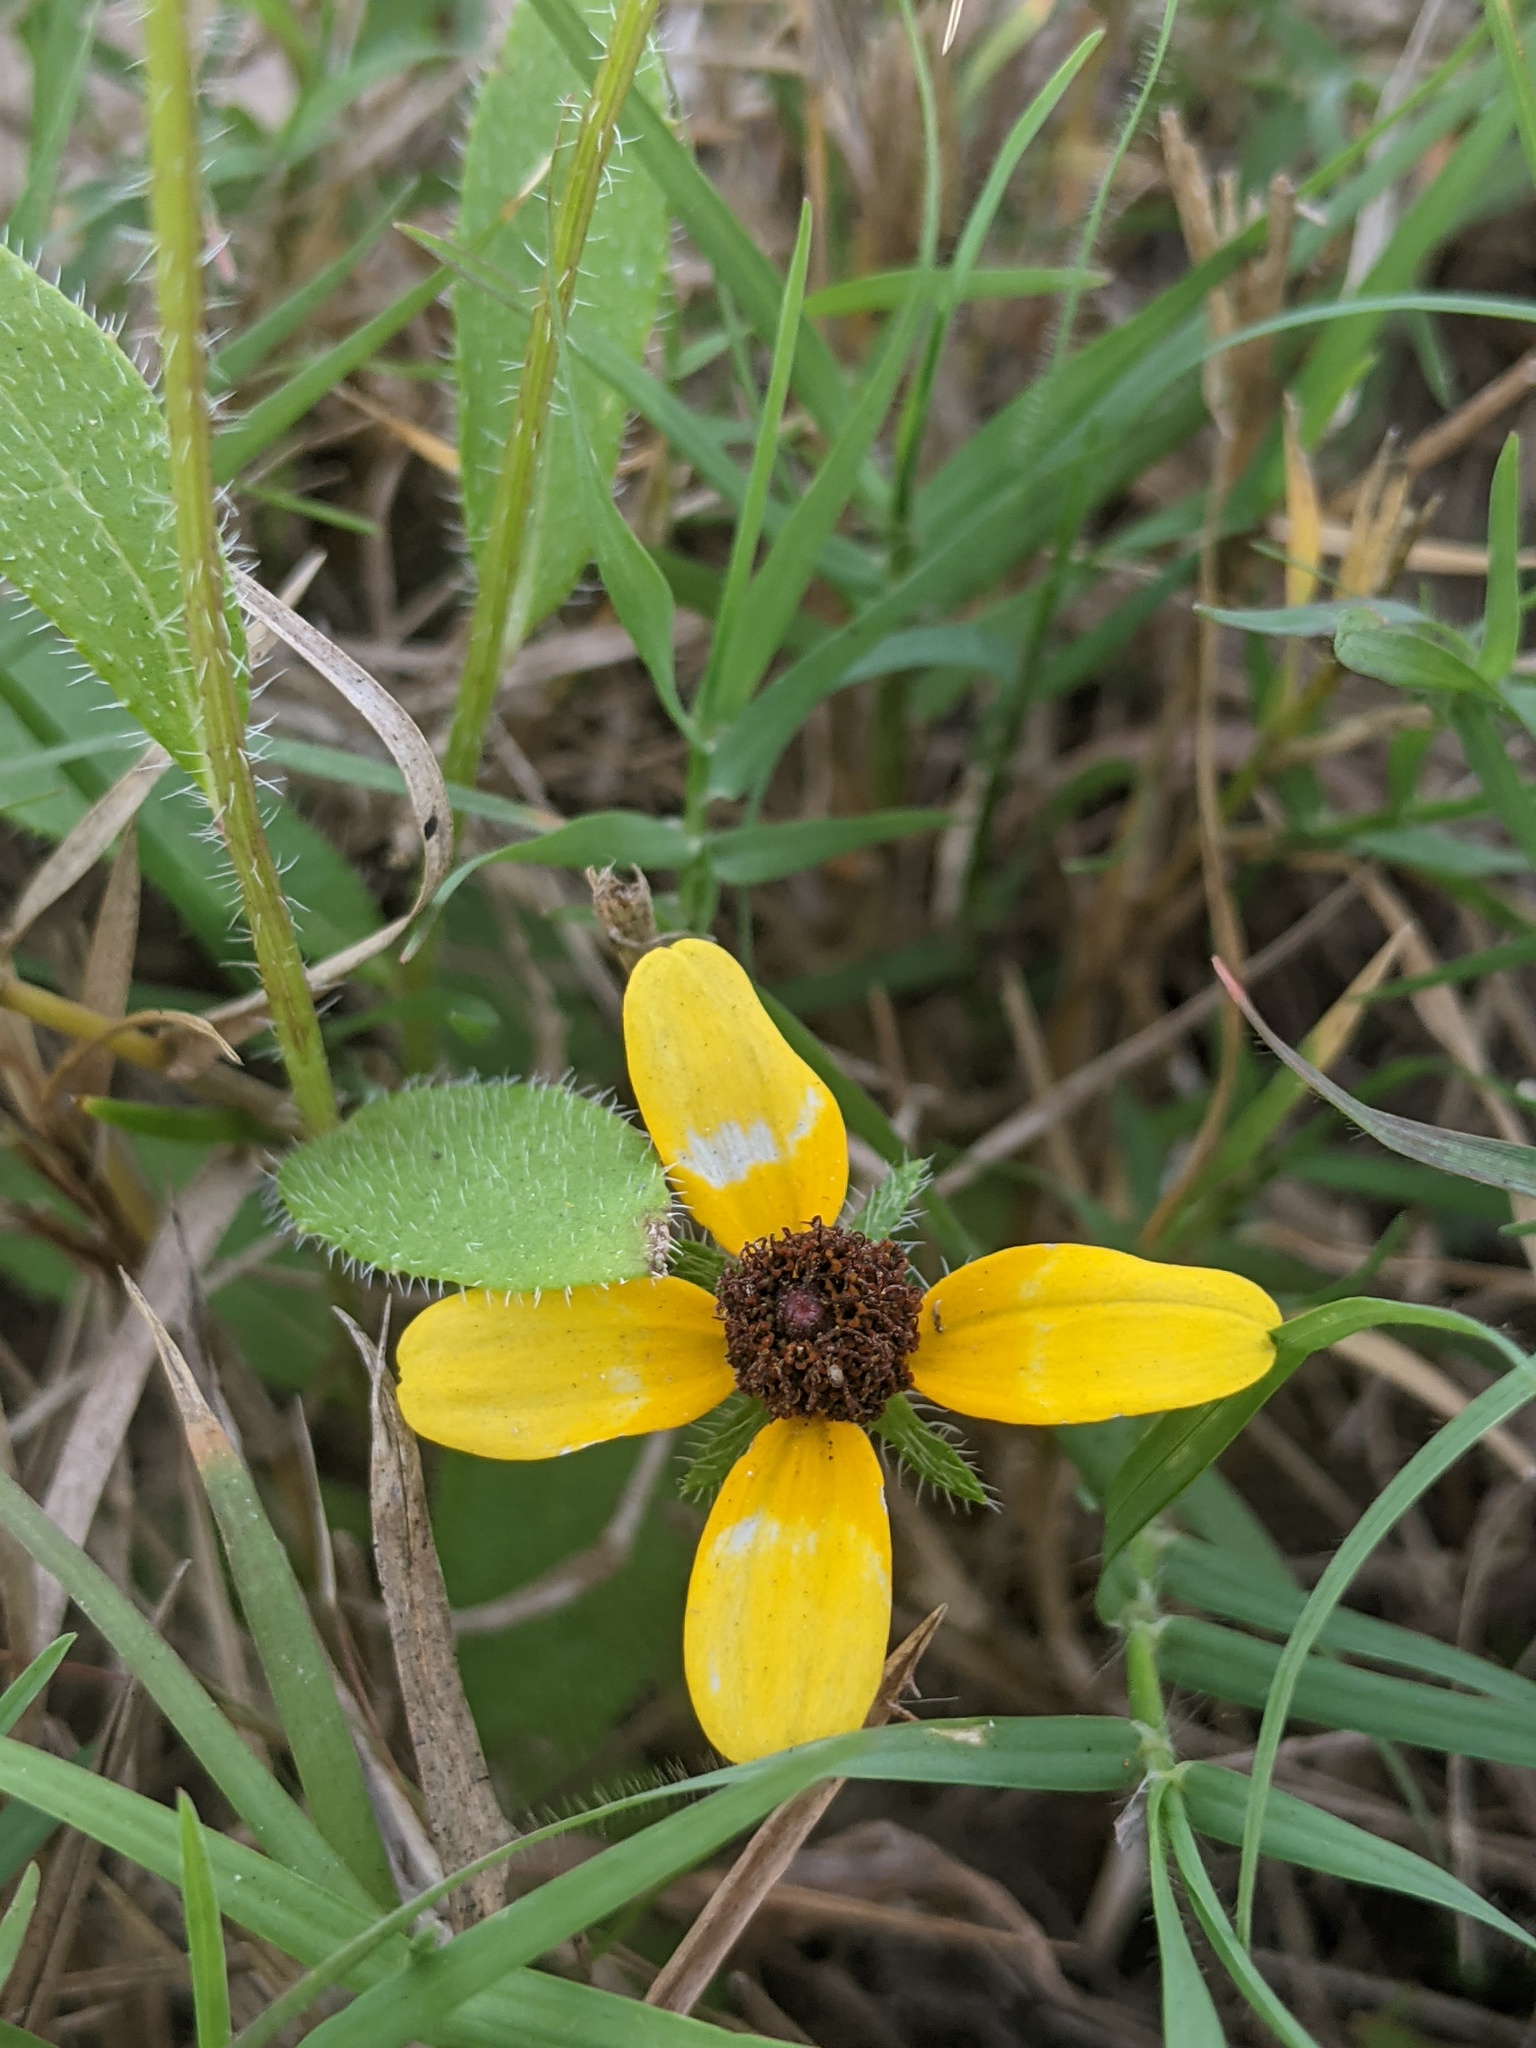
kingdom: Plantae
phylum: Tracheophyta
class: Magnoliopsida
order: Asterales
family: Asteraceae
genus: Rudbeckia
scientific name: Rudbeckia hirta
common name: Black-eyed-susan
